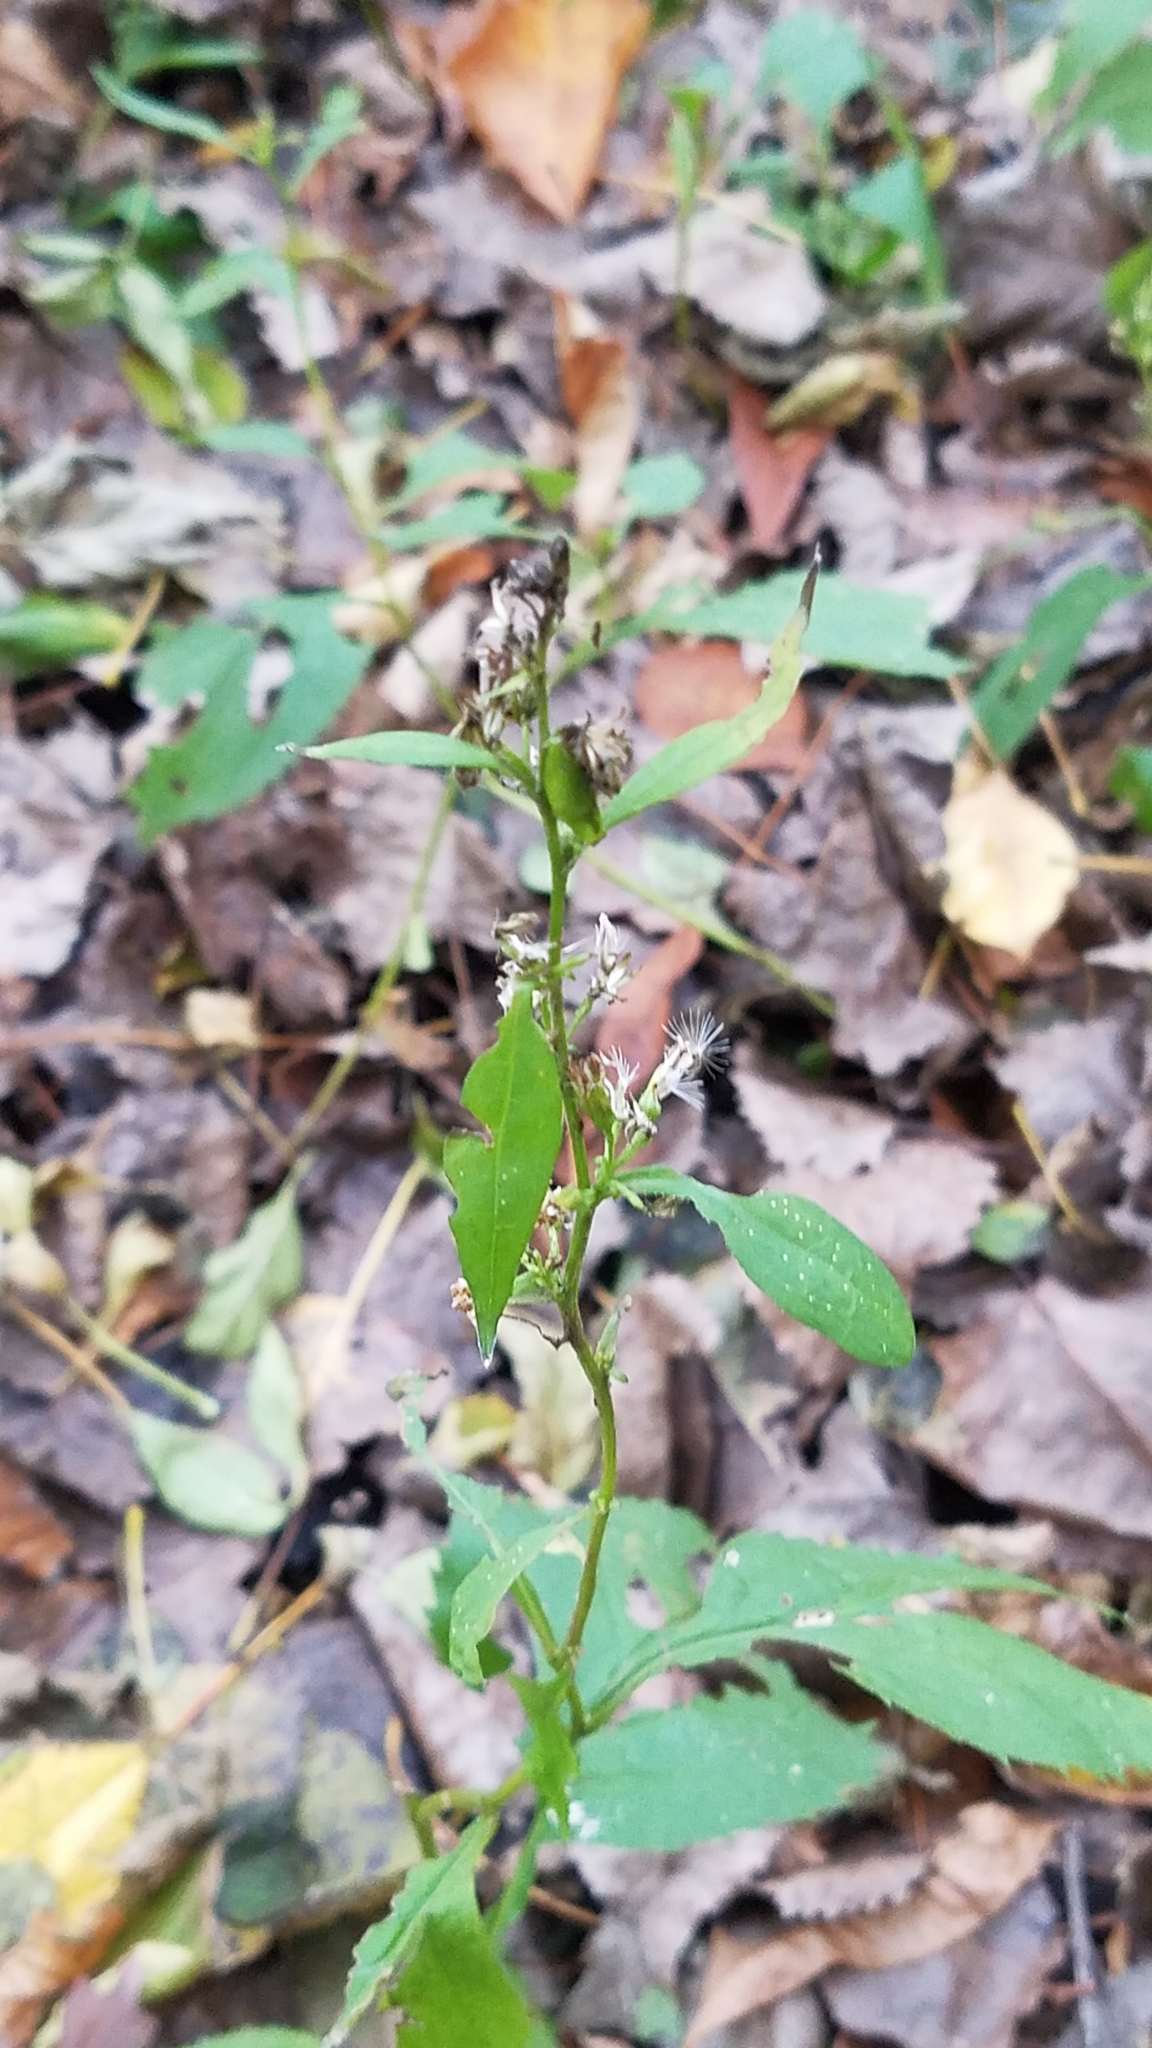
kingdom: Plantae
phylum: Tracheophyta
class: Magnoliopsida
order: Asterales
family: Asteraceae
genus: Solidago
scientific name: Solidago flexicaulis
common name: Zig-zag goldenrod
